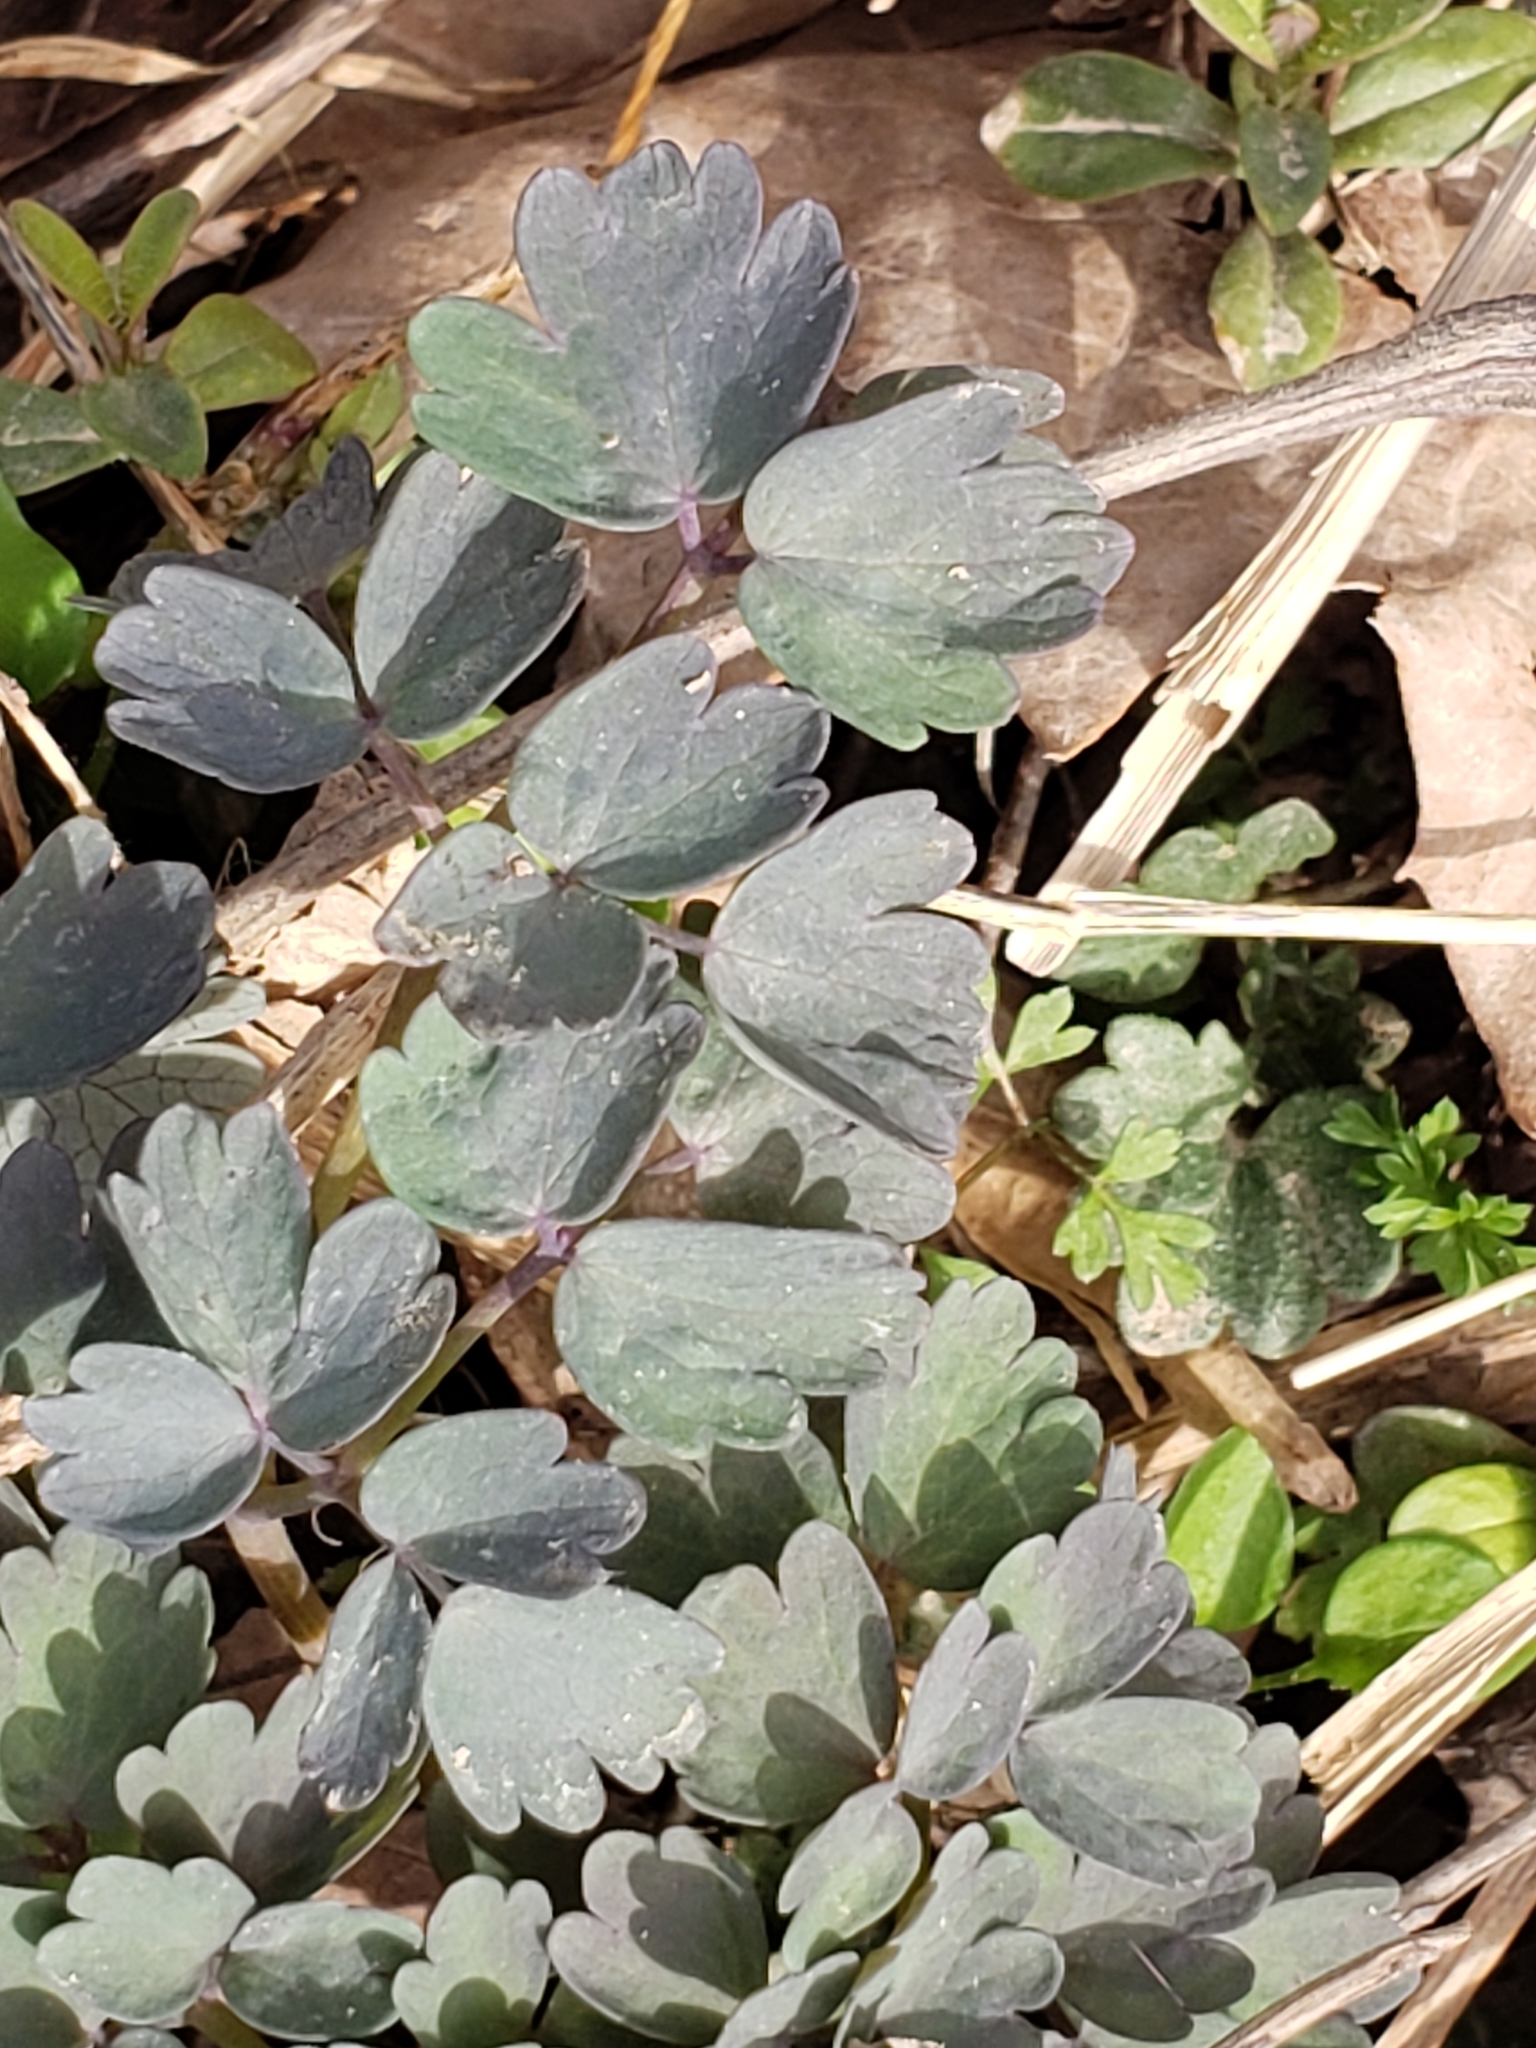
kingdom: Plantae
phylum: Tracheophyta
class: Magnoliopsida
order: Ranunculales
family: Ranunculaceae
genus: Thalictrum
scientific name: Thalictrum dioicum
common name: Early meadow-rue
